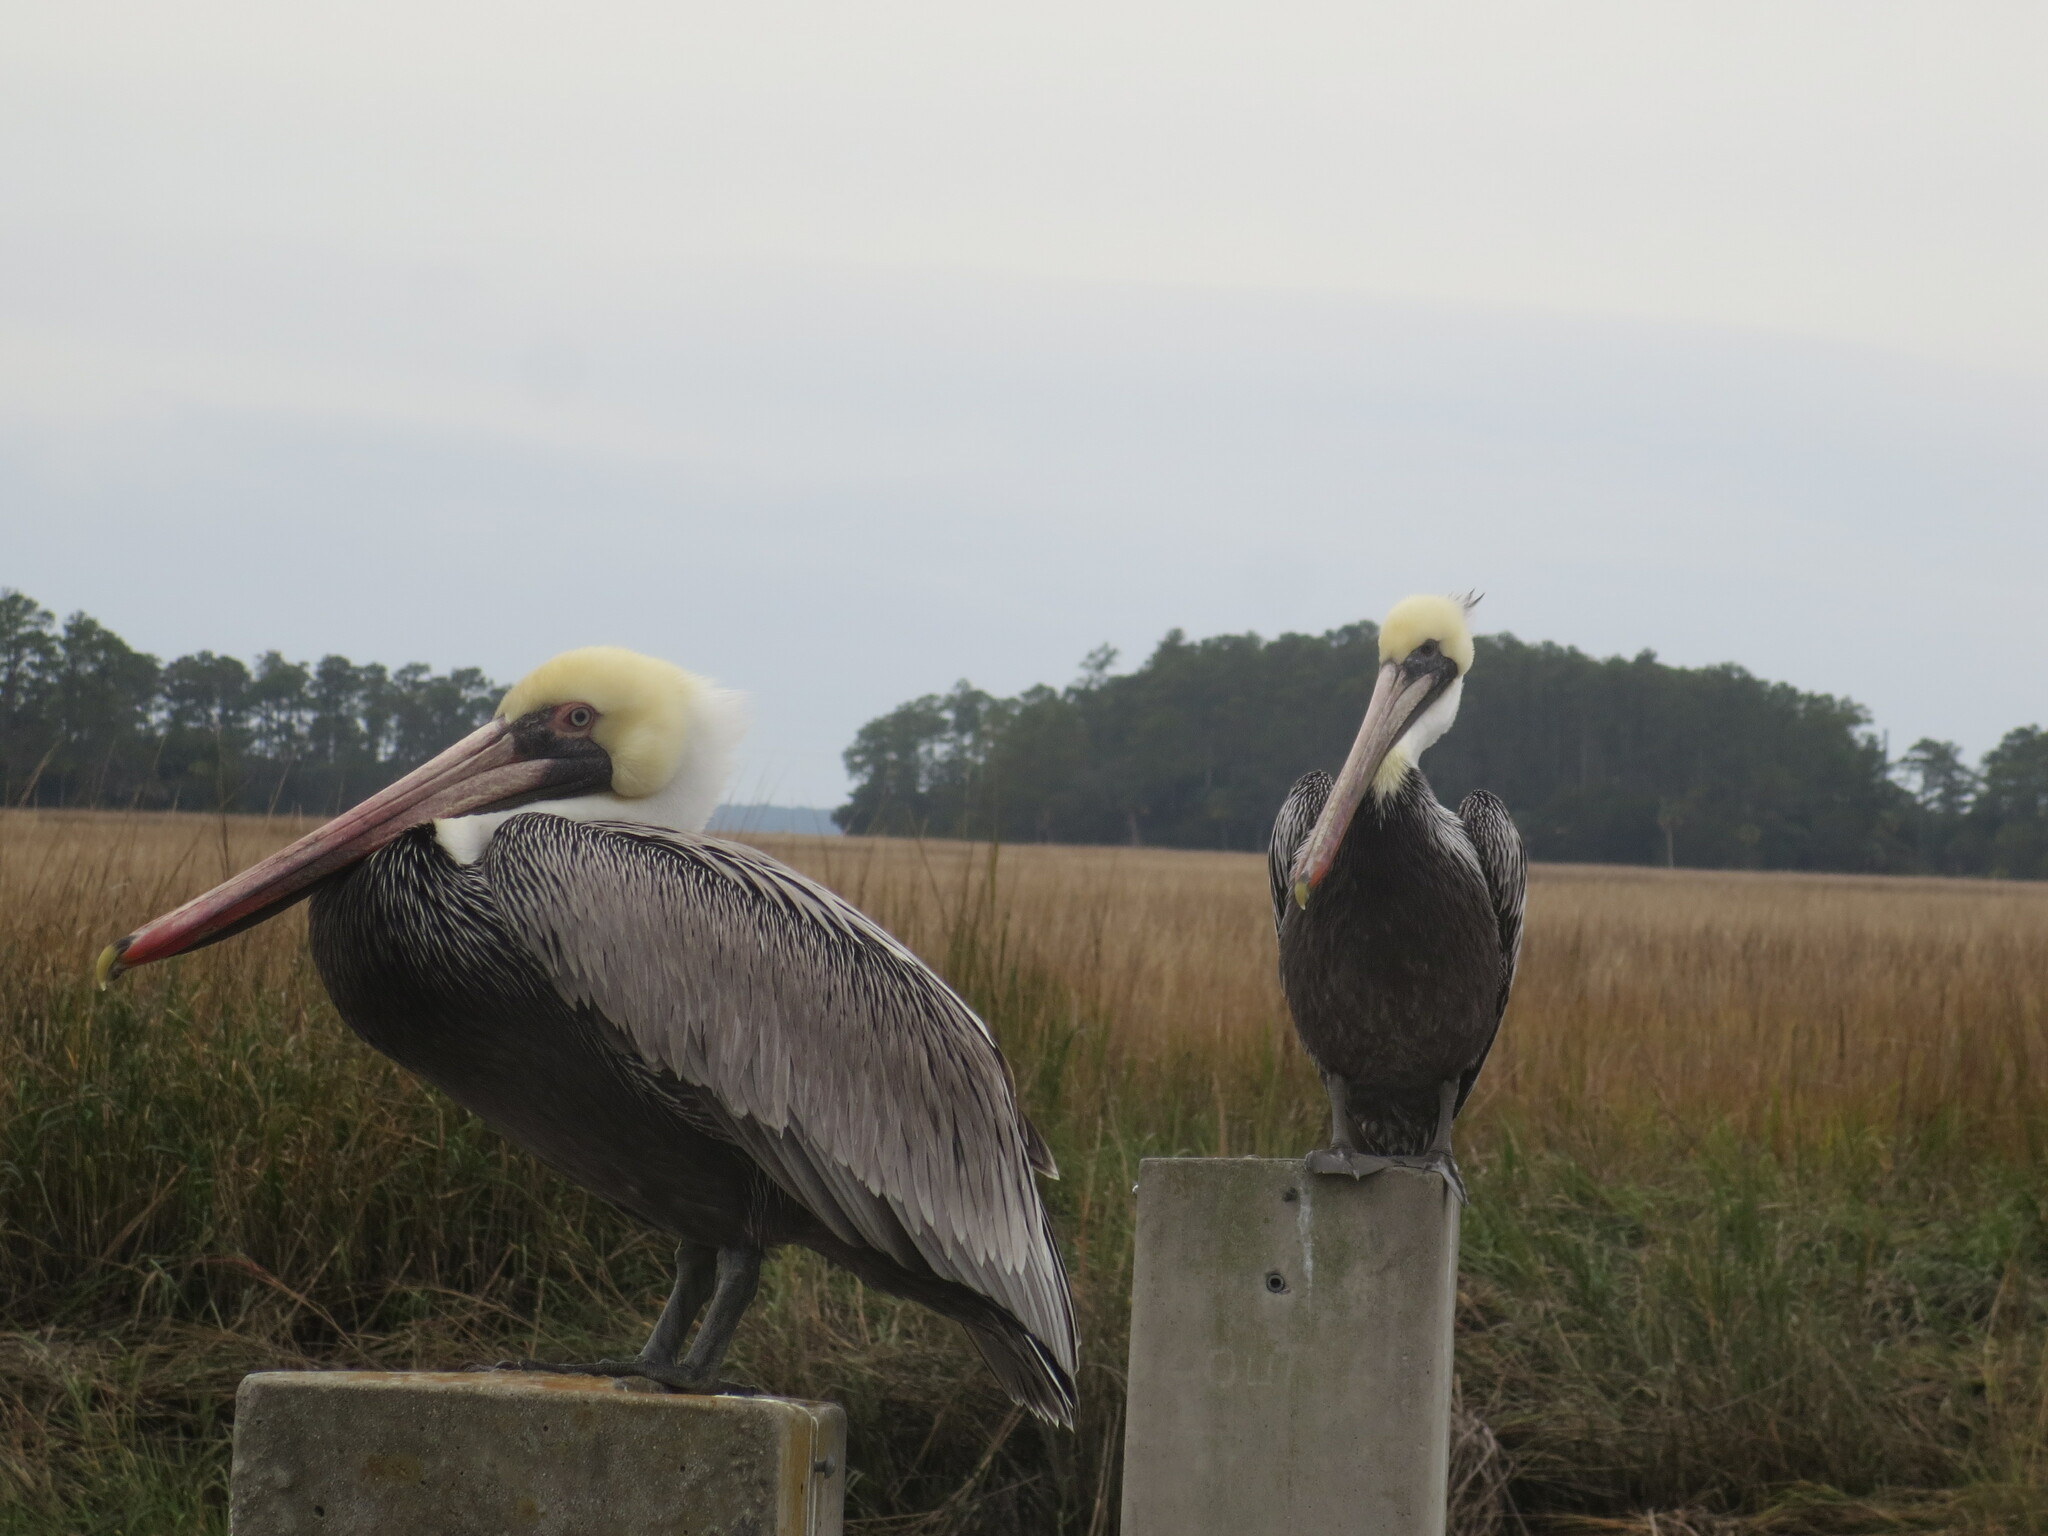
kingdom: Animalia
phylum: Chordata
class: Aves
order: Pelecaniformes
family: Pelecanidae
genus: Pelecanus
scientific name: Pelecanus occidentalis
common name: Brown pelican
